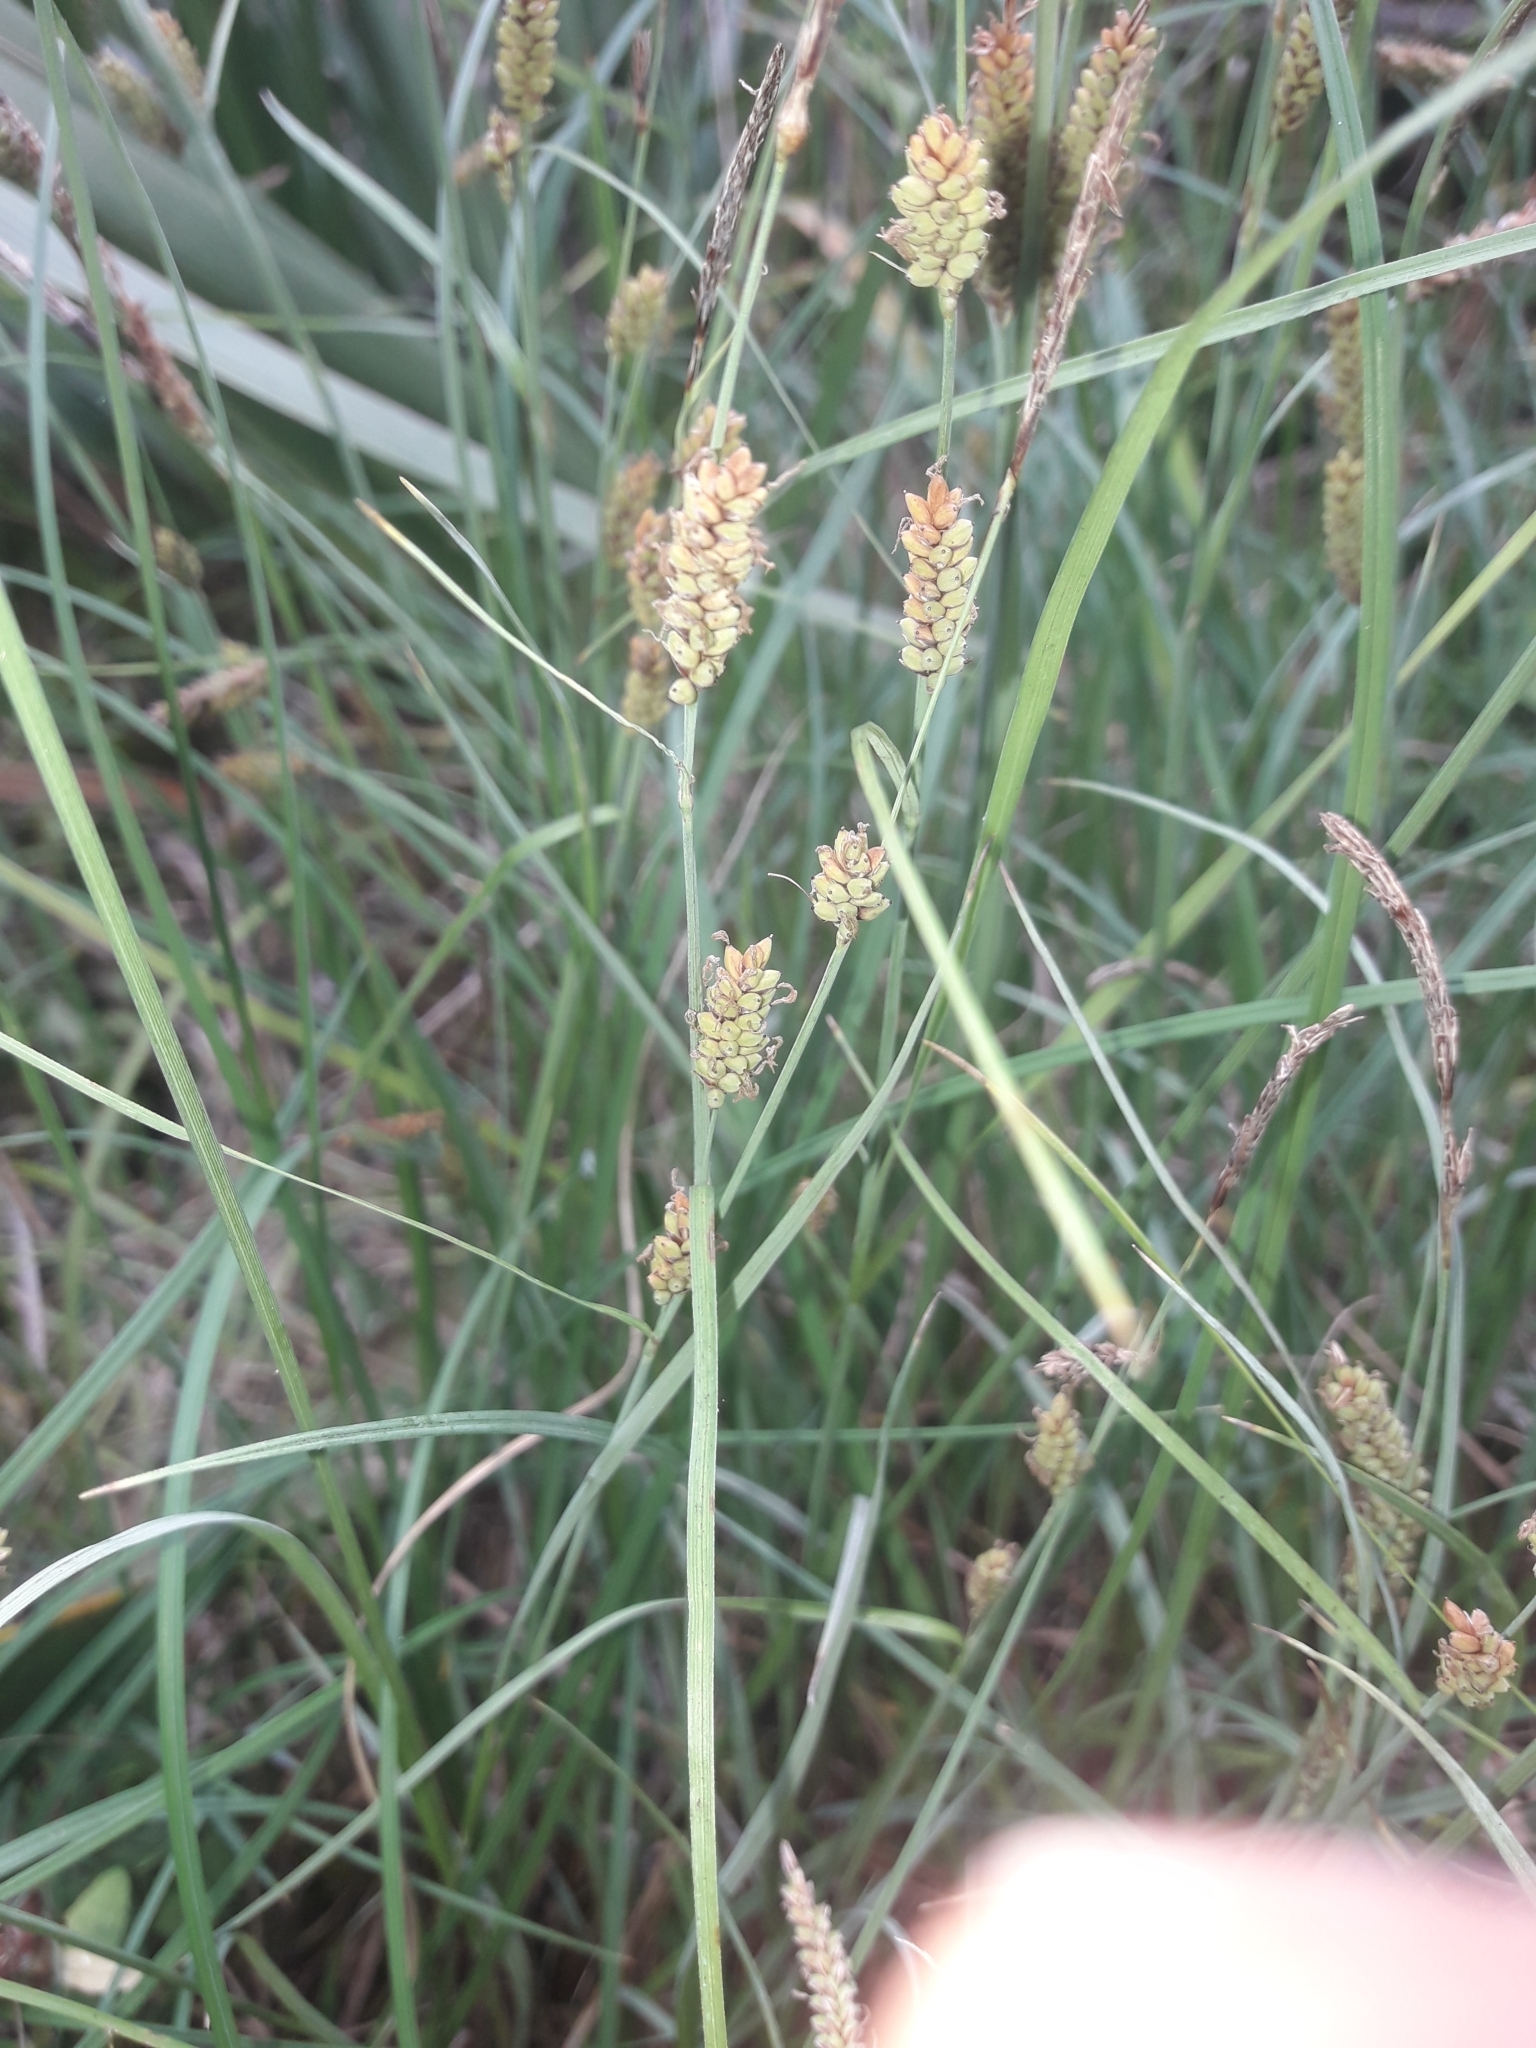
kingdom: Plantae
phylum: Tracheophyta
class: Liliopsida
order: Poales
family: Cyperaceae
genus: Carex
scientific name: Carex flacca
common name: Glaucous sedge
